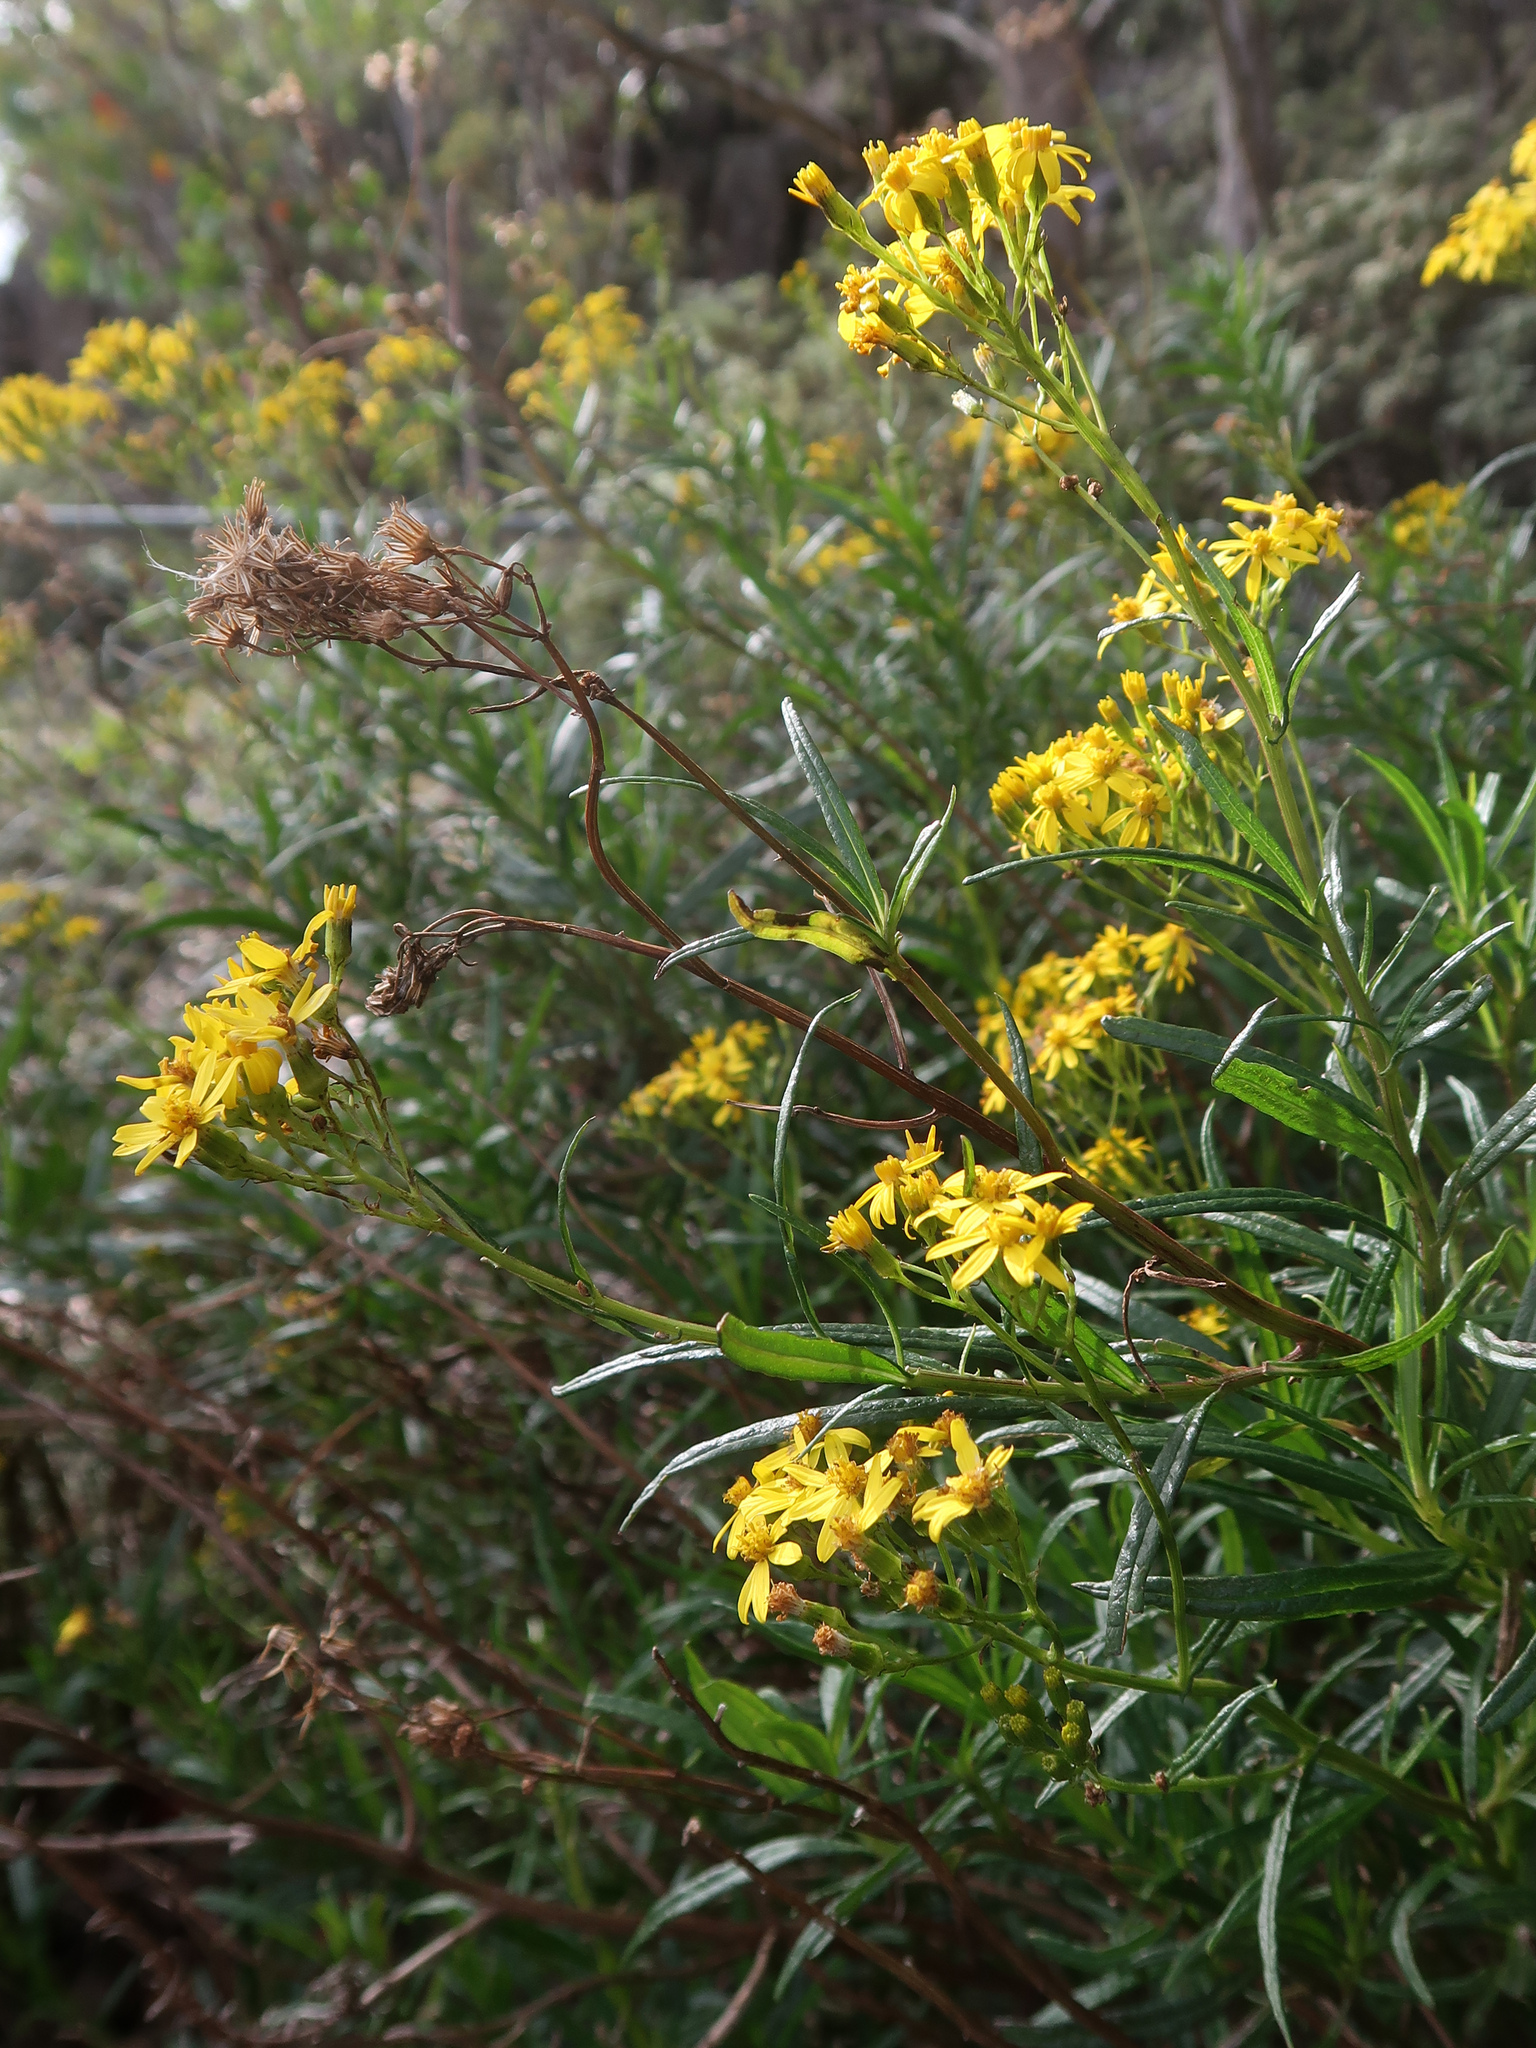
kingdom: Plantae
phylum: Tracheophyta
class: Magnoliopsida
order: Asterales
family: Asteraceae
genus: Senecio
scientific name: Senecio linearifolius
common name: Fireweed groundsel
